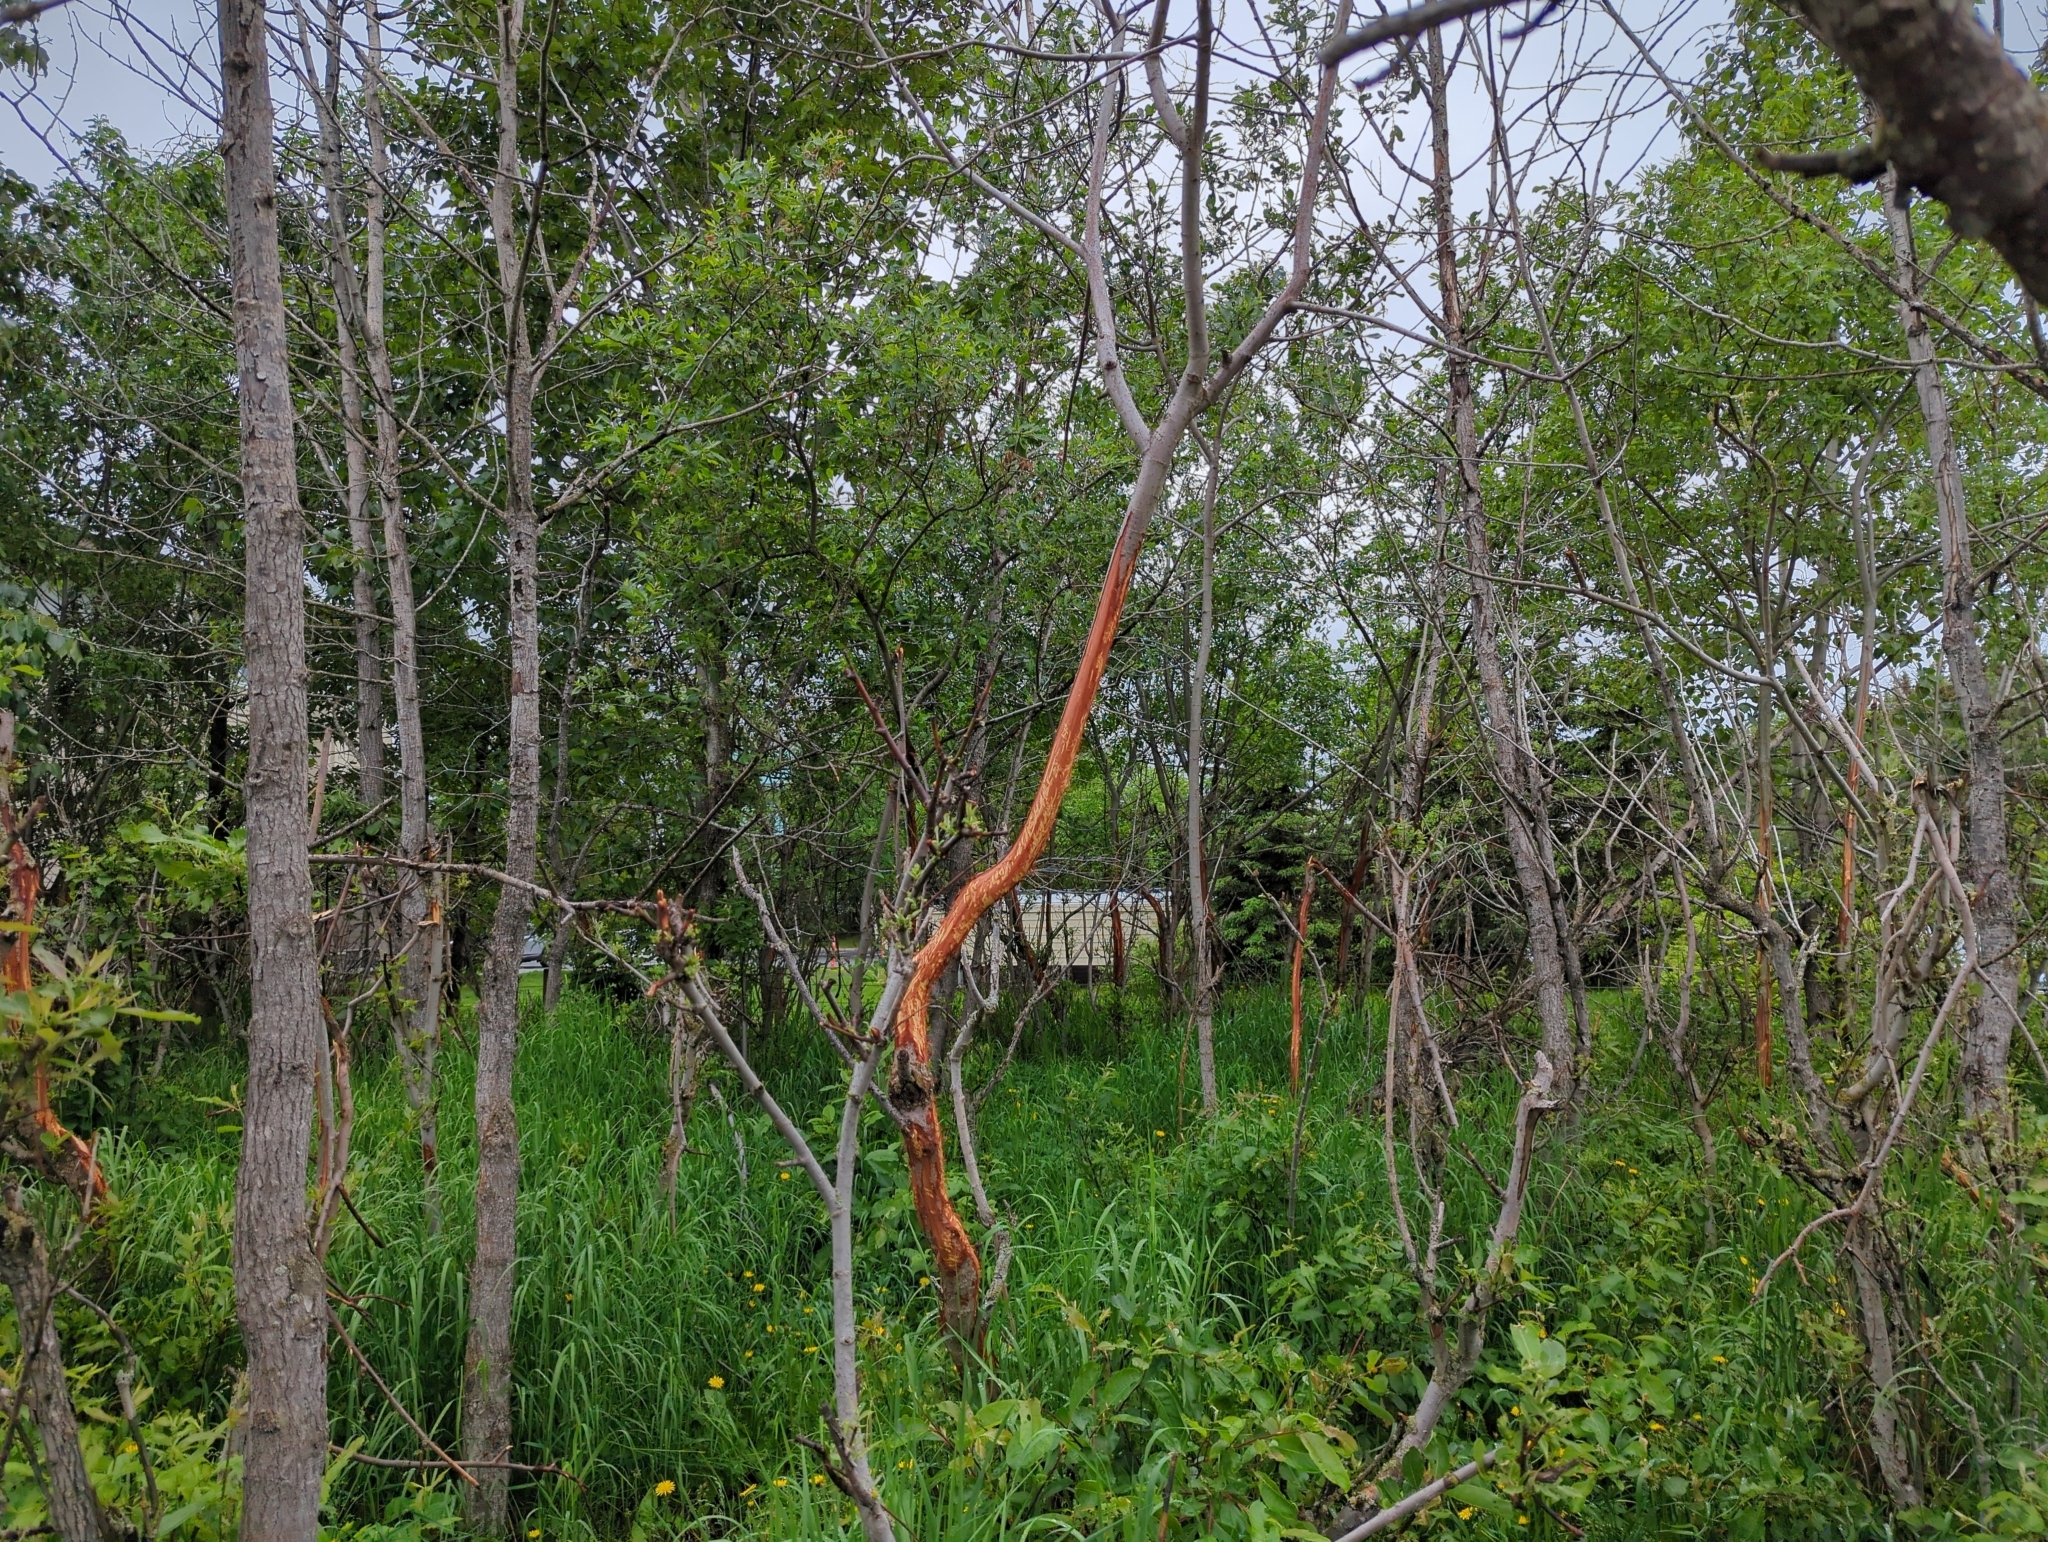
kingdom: Animalia
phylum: Chordata
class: Mammalia
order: Artiodactyla
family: Cervidae
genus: Alces
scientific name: Alces alces
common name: Moose
